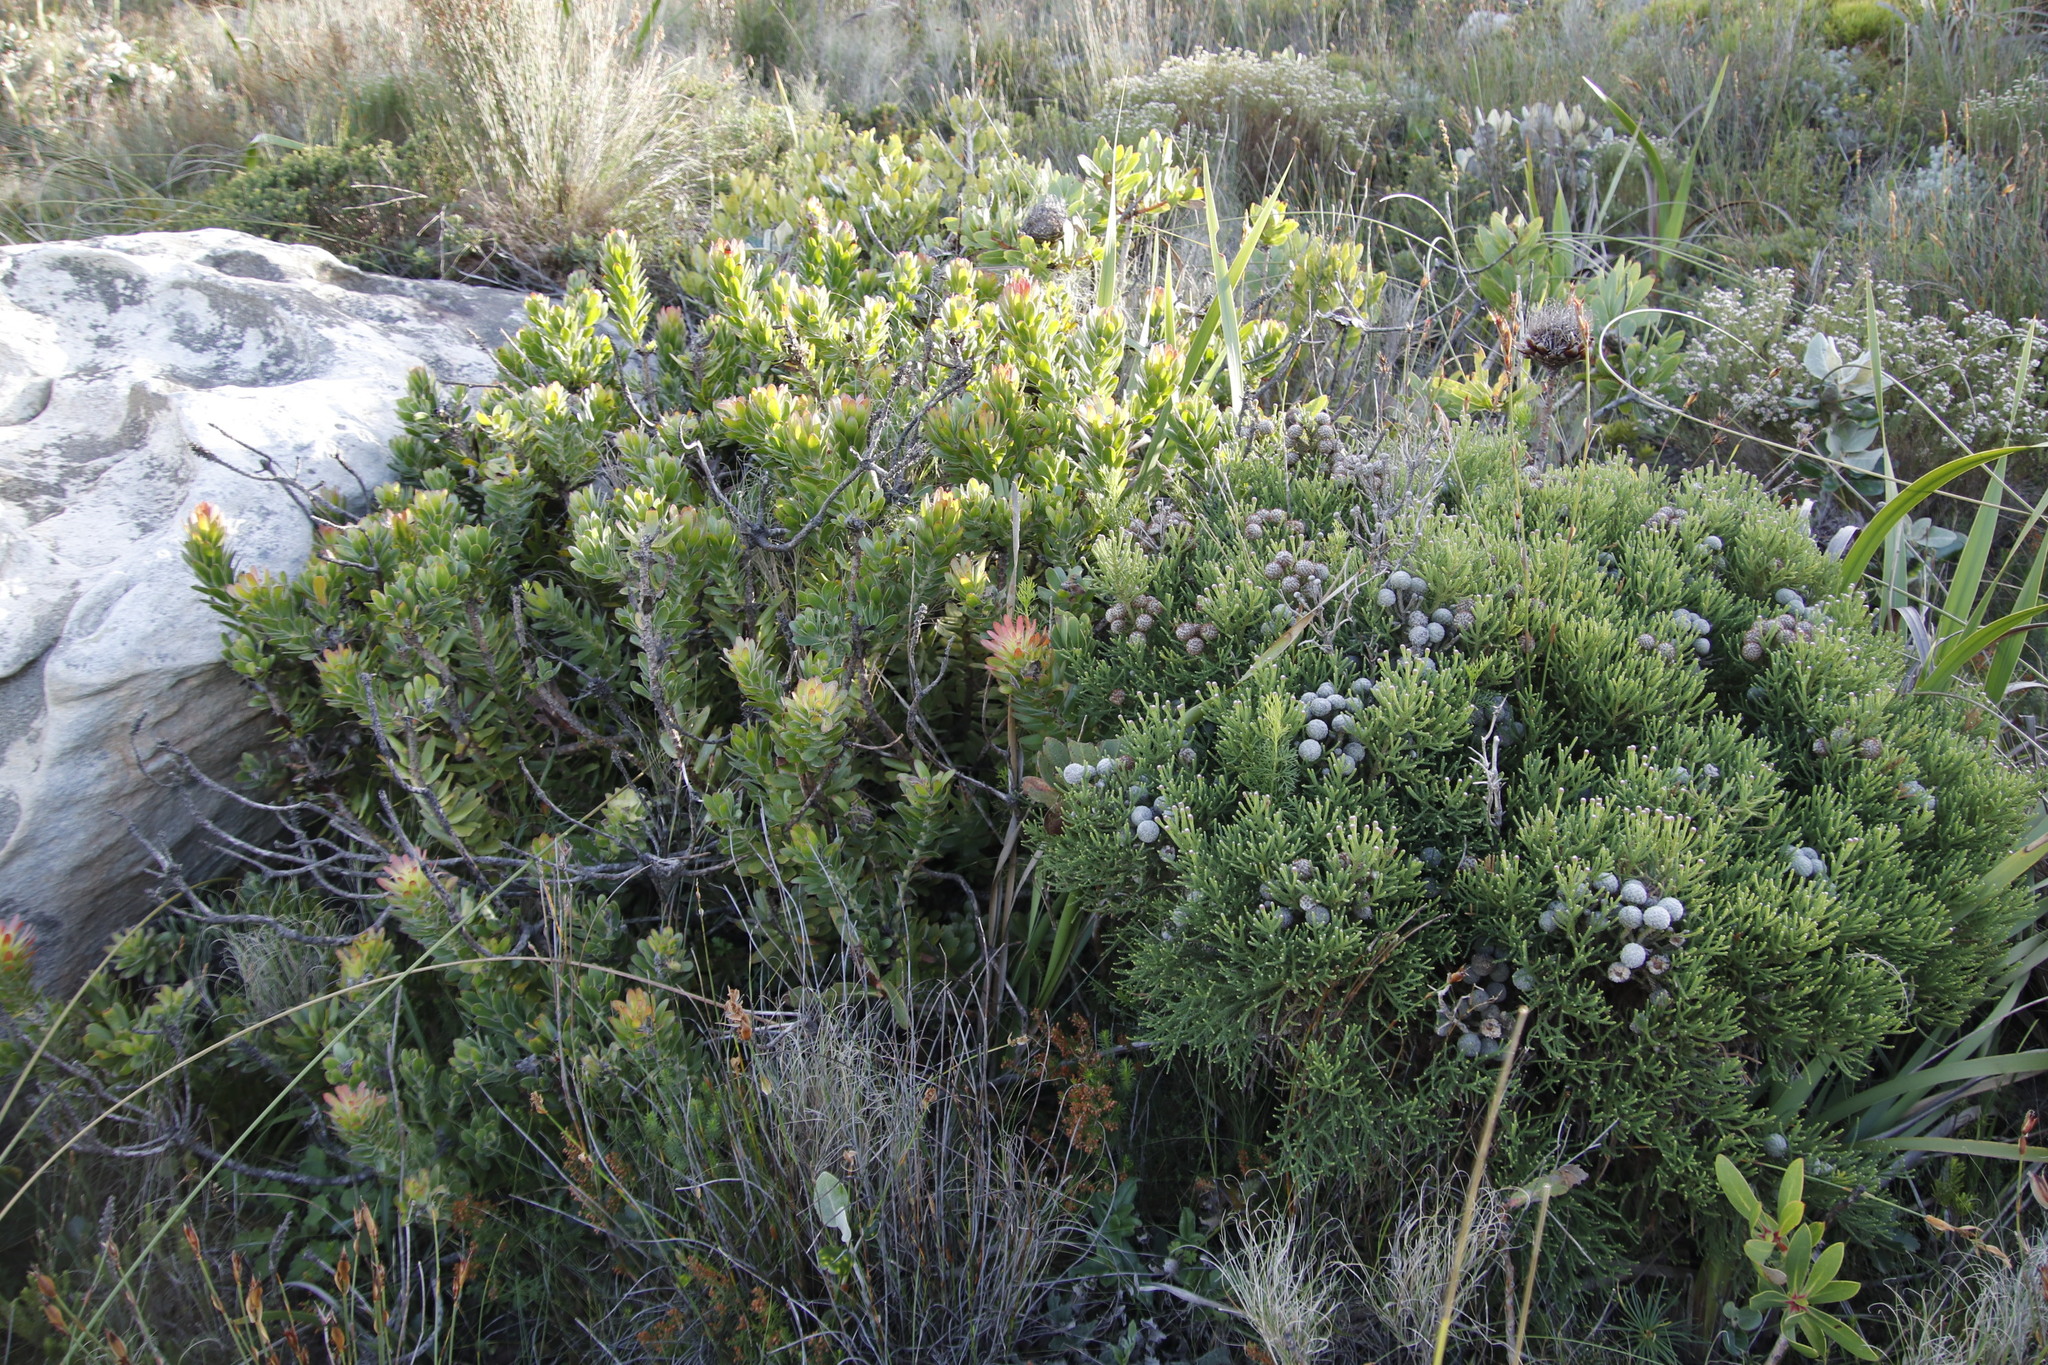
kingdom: Plantae
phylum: Tracheophyta
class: Magnoliopsida
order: Proteales
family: Proteaceae
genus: Mimetes
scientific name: Mimetes cucullatus
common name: Common pagoda
